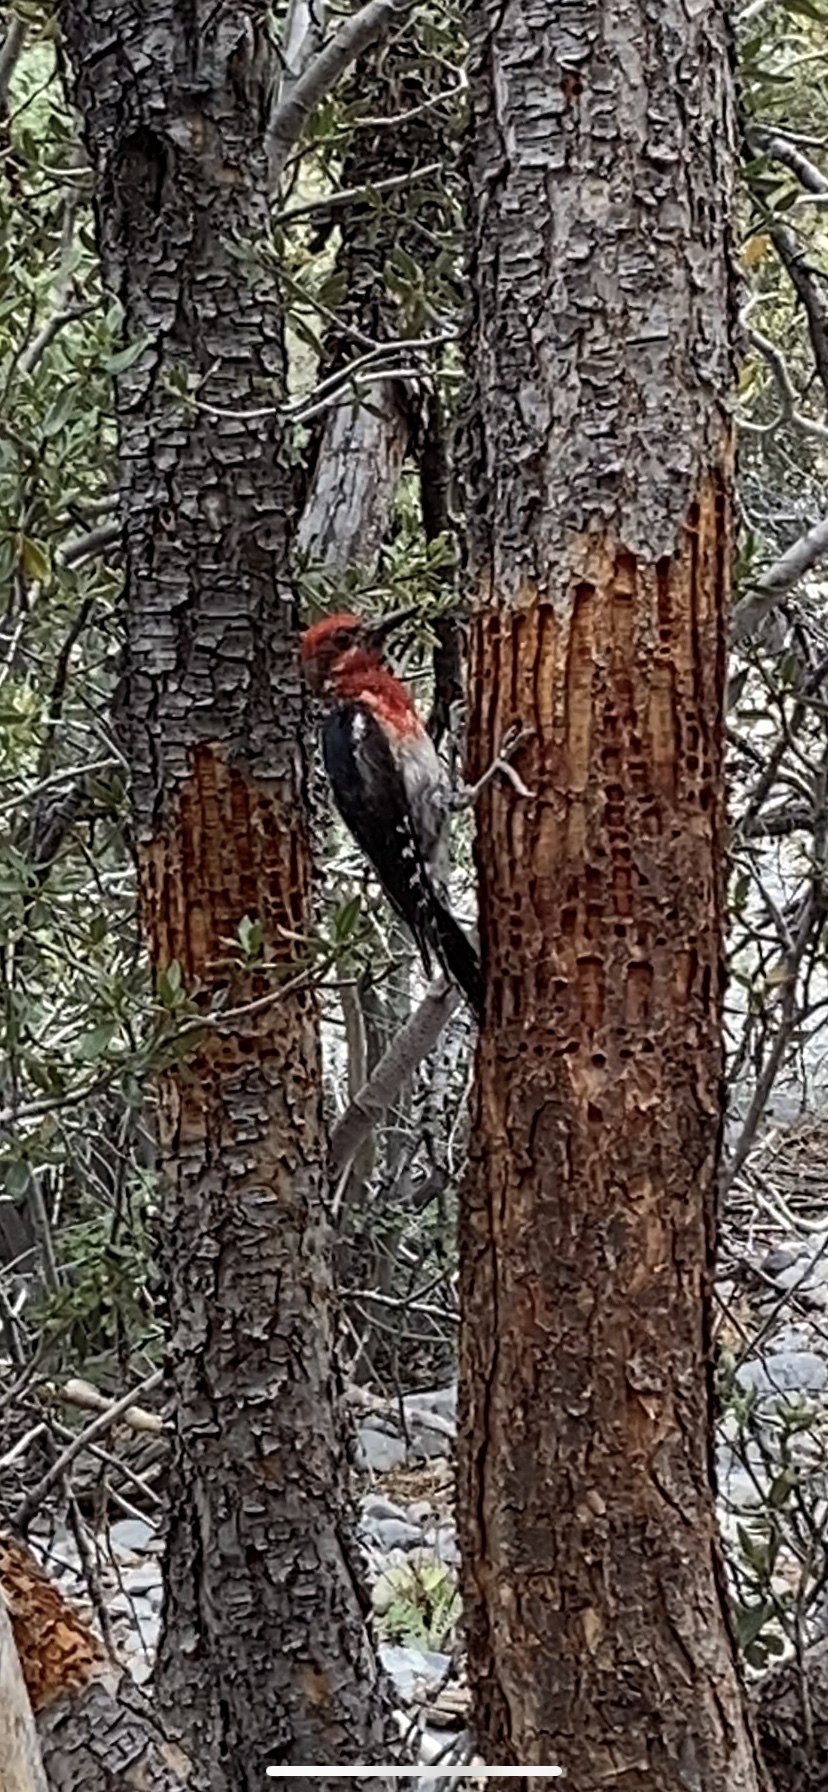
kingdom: Animalia
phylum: Chordata
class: Aves
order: Piciformes
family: Picidae
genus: Sphyrapicus
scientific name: Sphyrapicus ruber
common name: Red-breasted sapsucker
